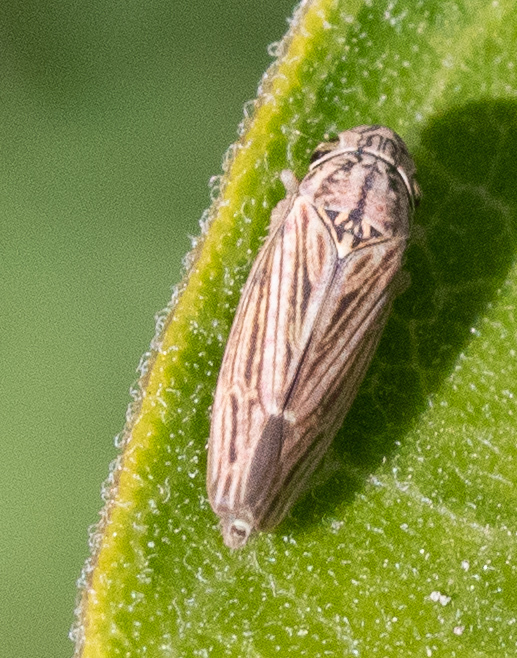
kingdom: Animalia
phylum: Arthropoda
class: Insecta
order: Hemiptera
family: Cicadellidae
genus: Neokolla
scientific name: Neokolla hieroglyphica
